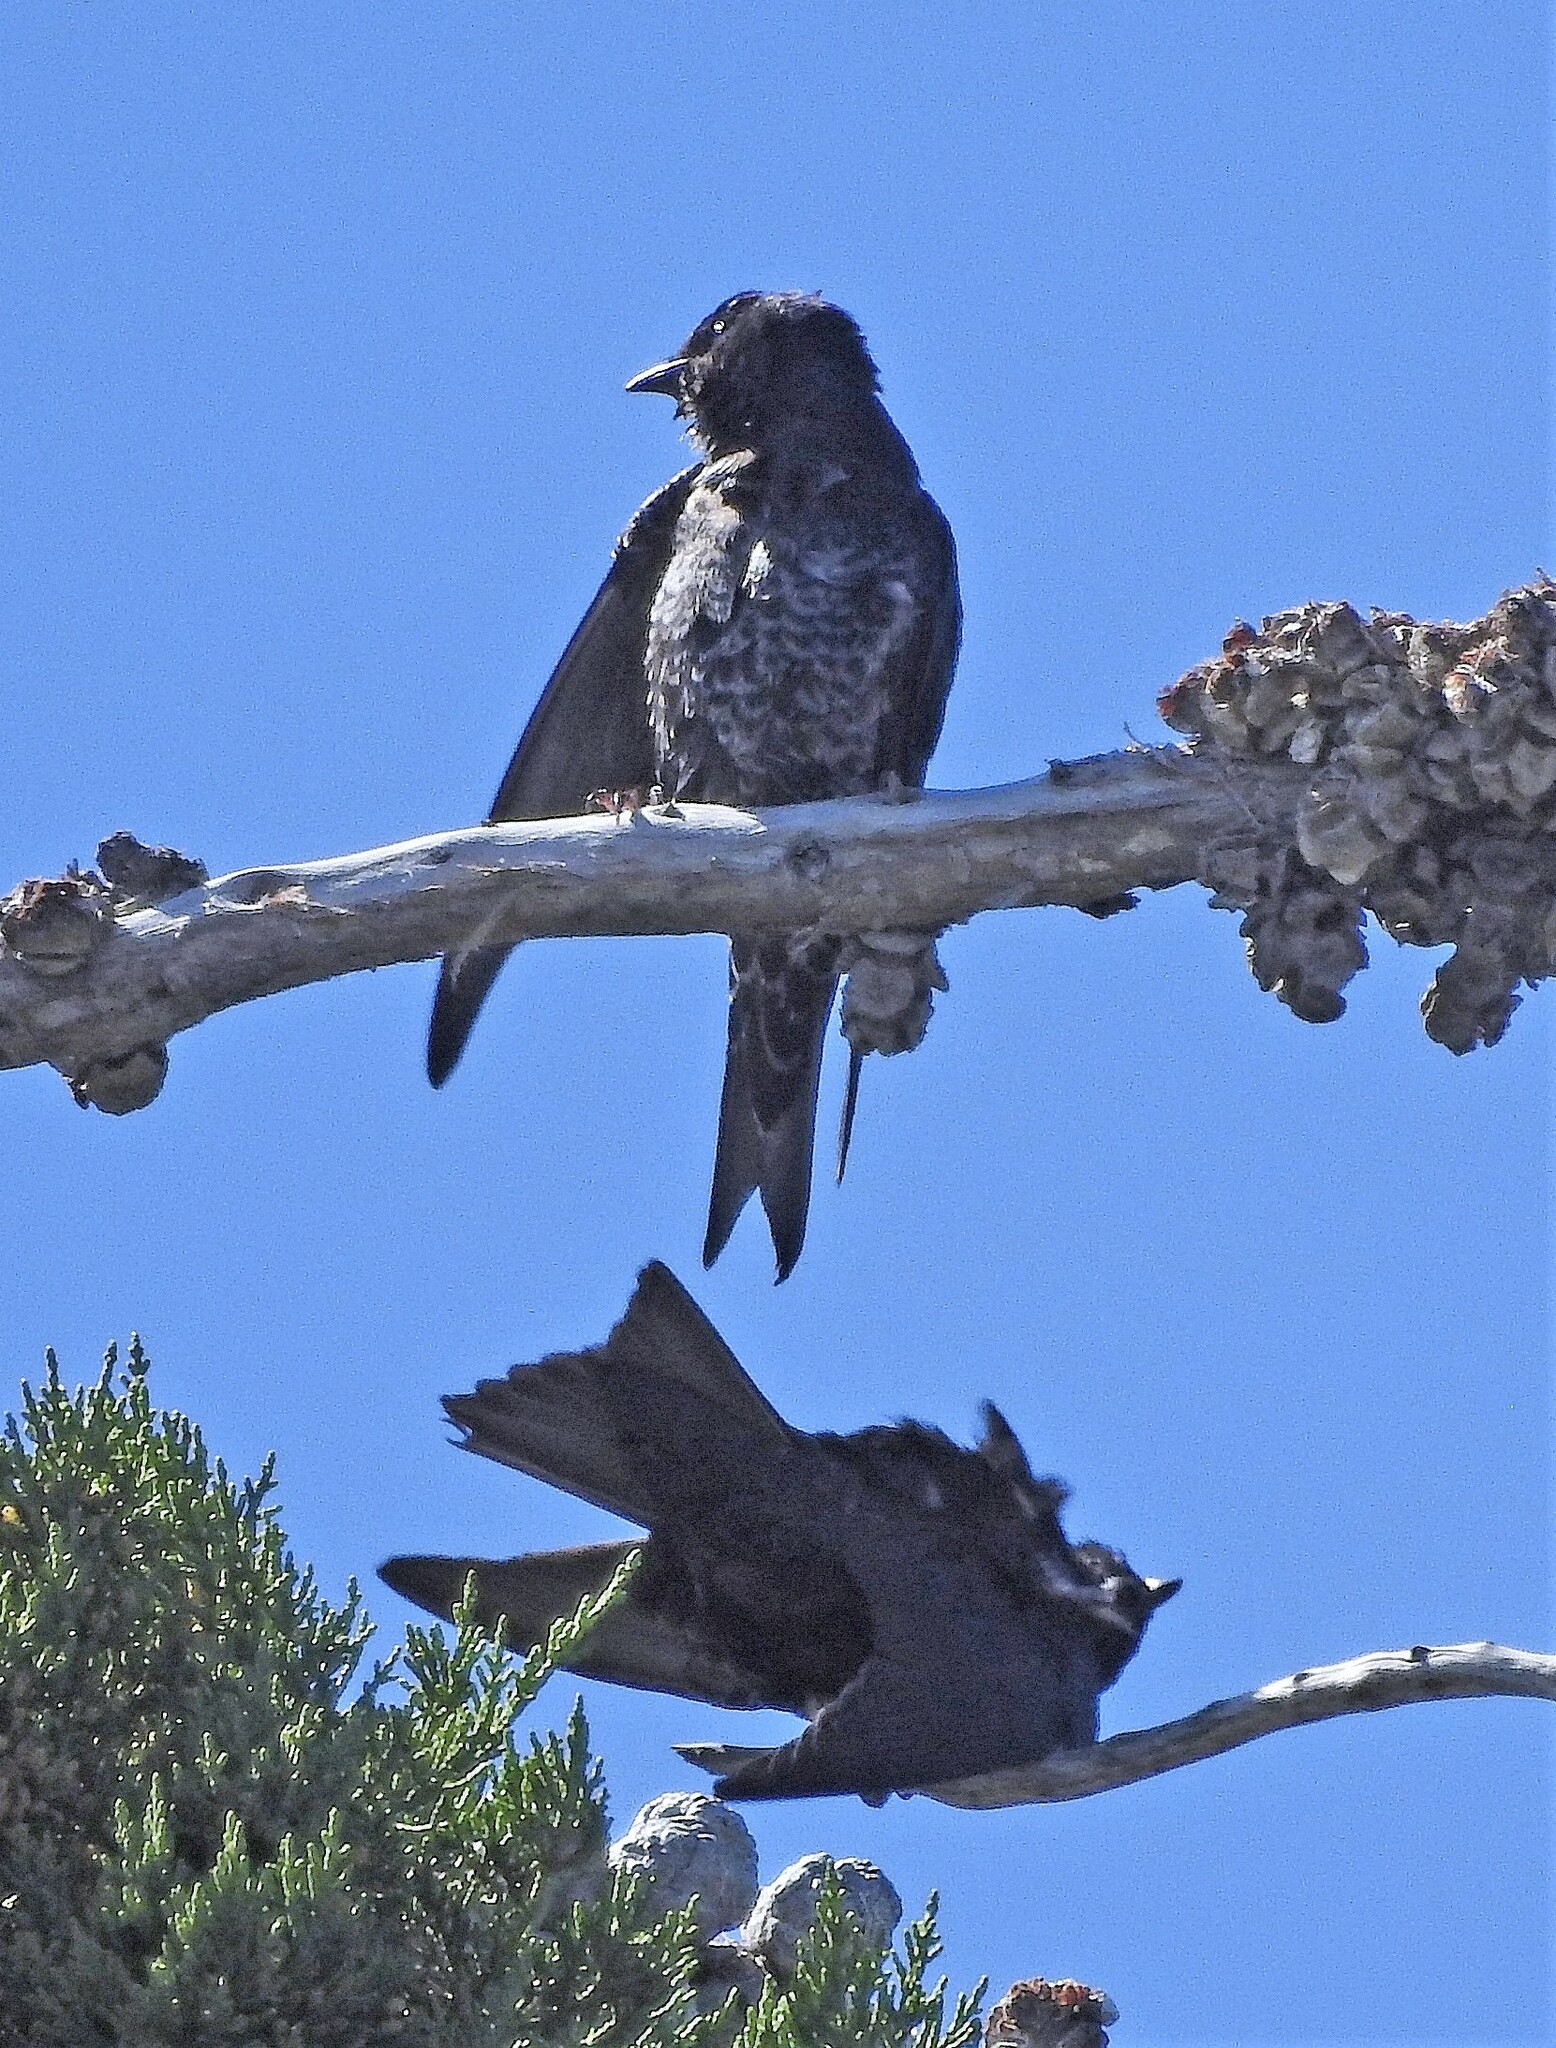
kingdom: Animalia
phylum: Chordata
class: Aves
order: Passeriformes
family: Hirundinidae
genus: Progne
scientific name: Progne elegans
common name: Southern martin
